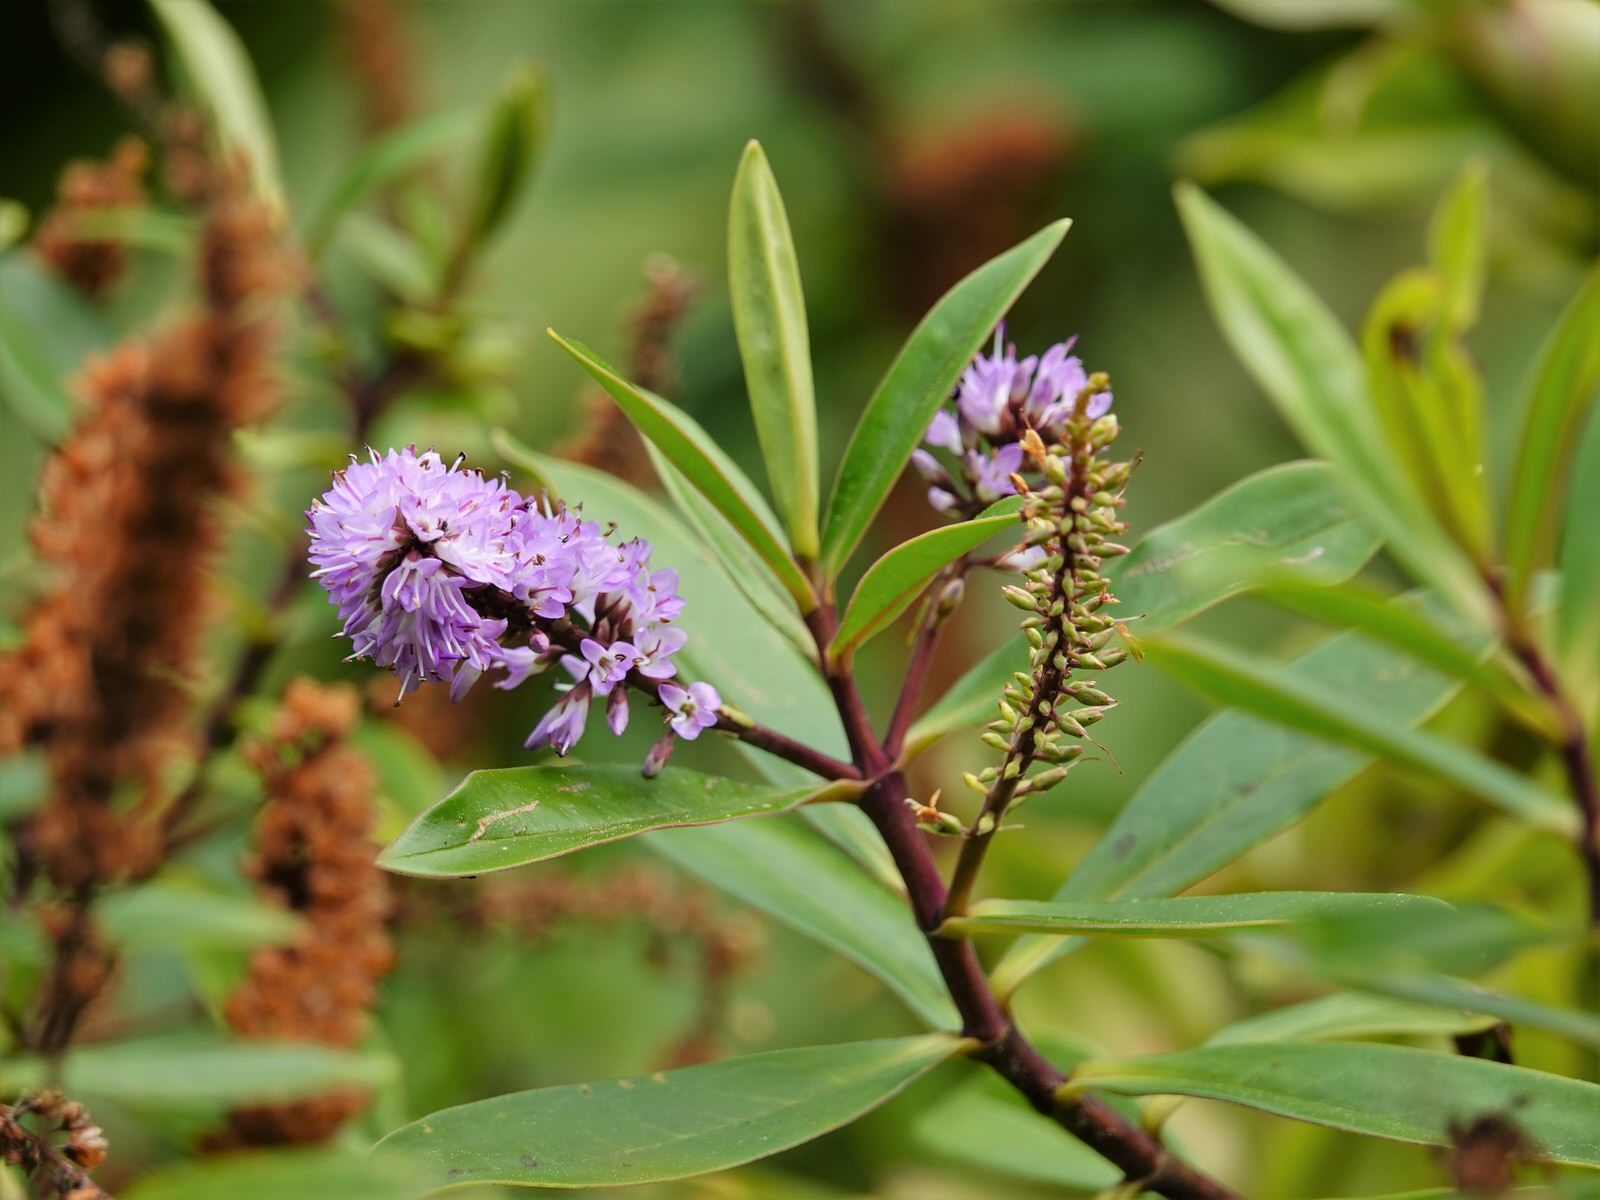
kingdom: Plantae
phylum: Tracheophyta
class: Magnoliopsida
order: Lamiales
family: Plantaginaceae
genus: Veronica
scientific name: Veronica stricta
